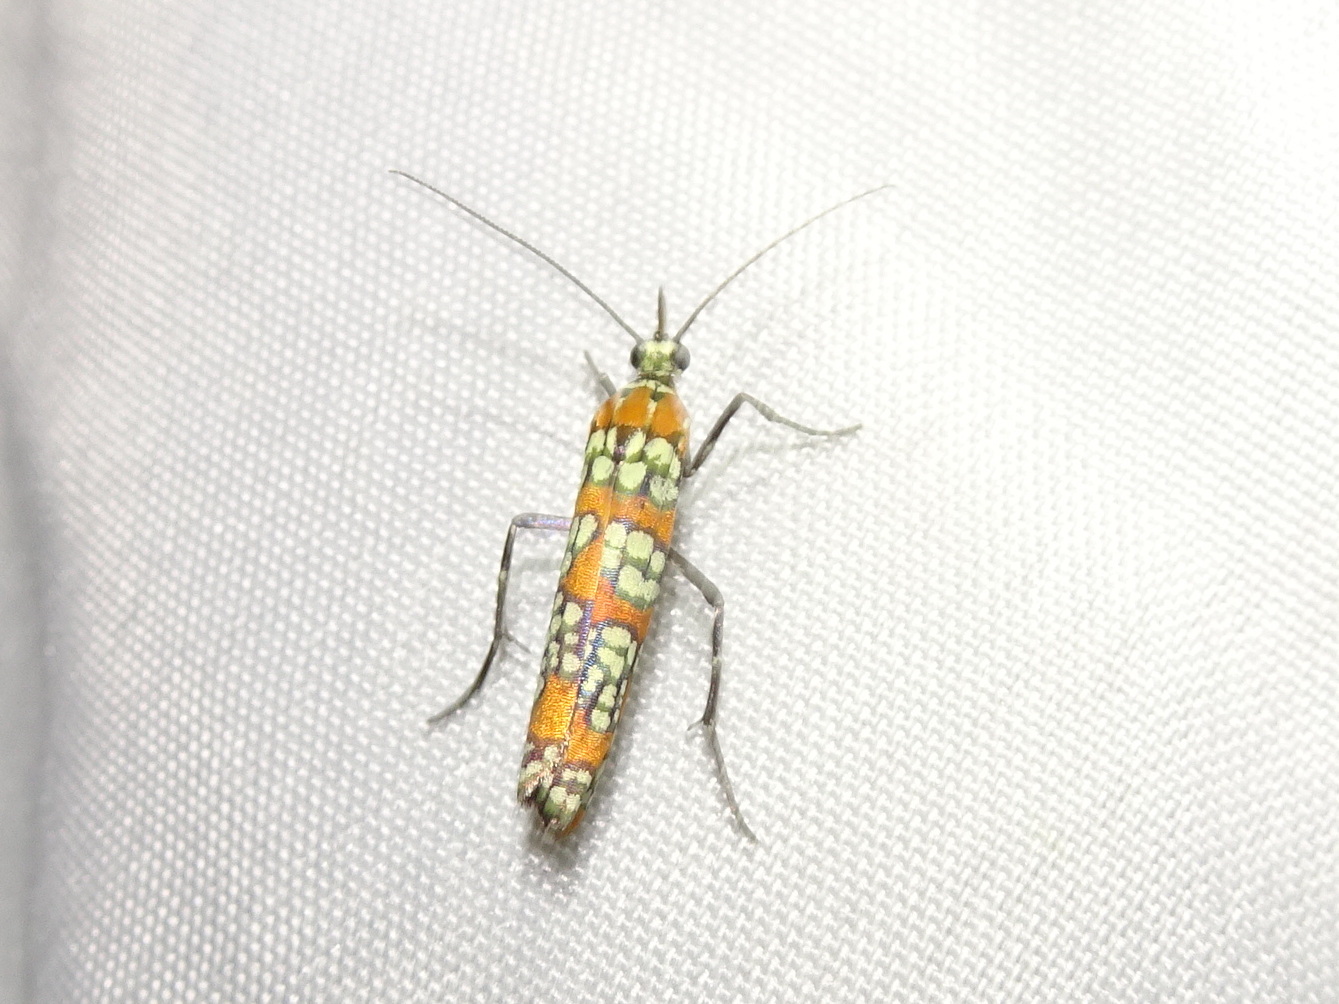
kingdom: Animalia
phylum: Arthropoda
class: Insecta
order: Lepidoptera
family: Attevidae
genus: Atteva
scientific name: Atteva punctella
